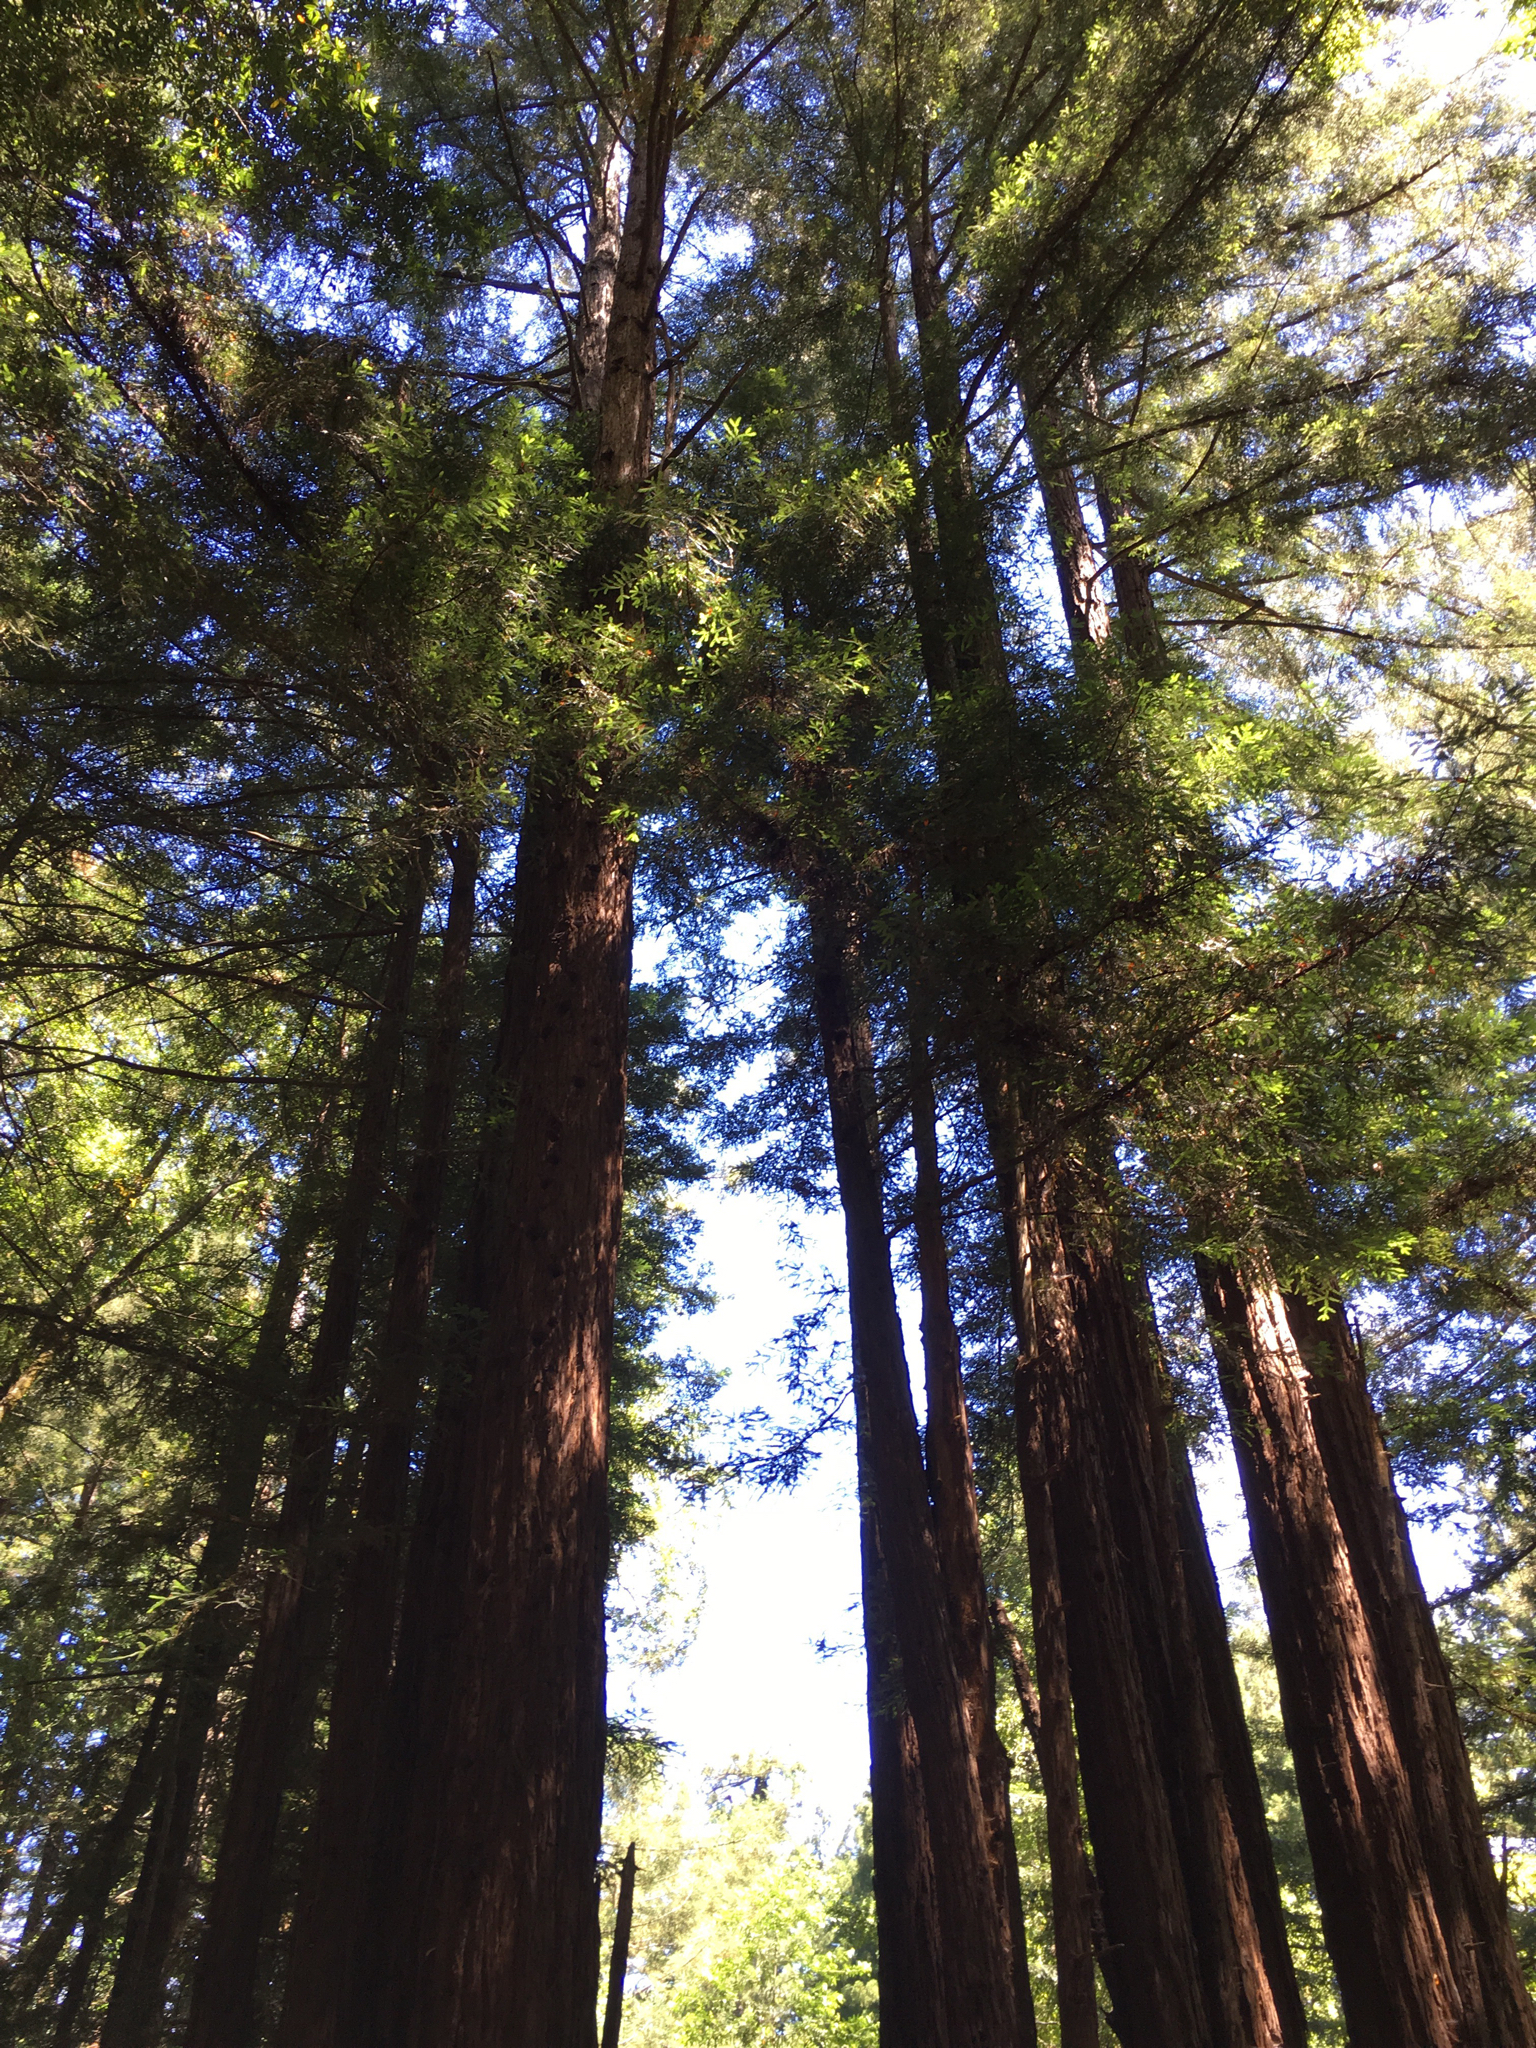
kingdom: Plantae
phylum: Tracheophyta
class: Pinopsida
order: Pinales
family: Cupressaceae
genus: Sequoia
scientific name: Sequoia sempervirens
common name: Coast redwood
